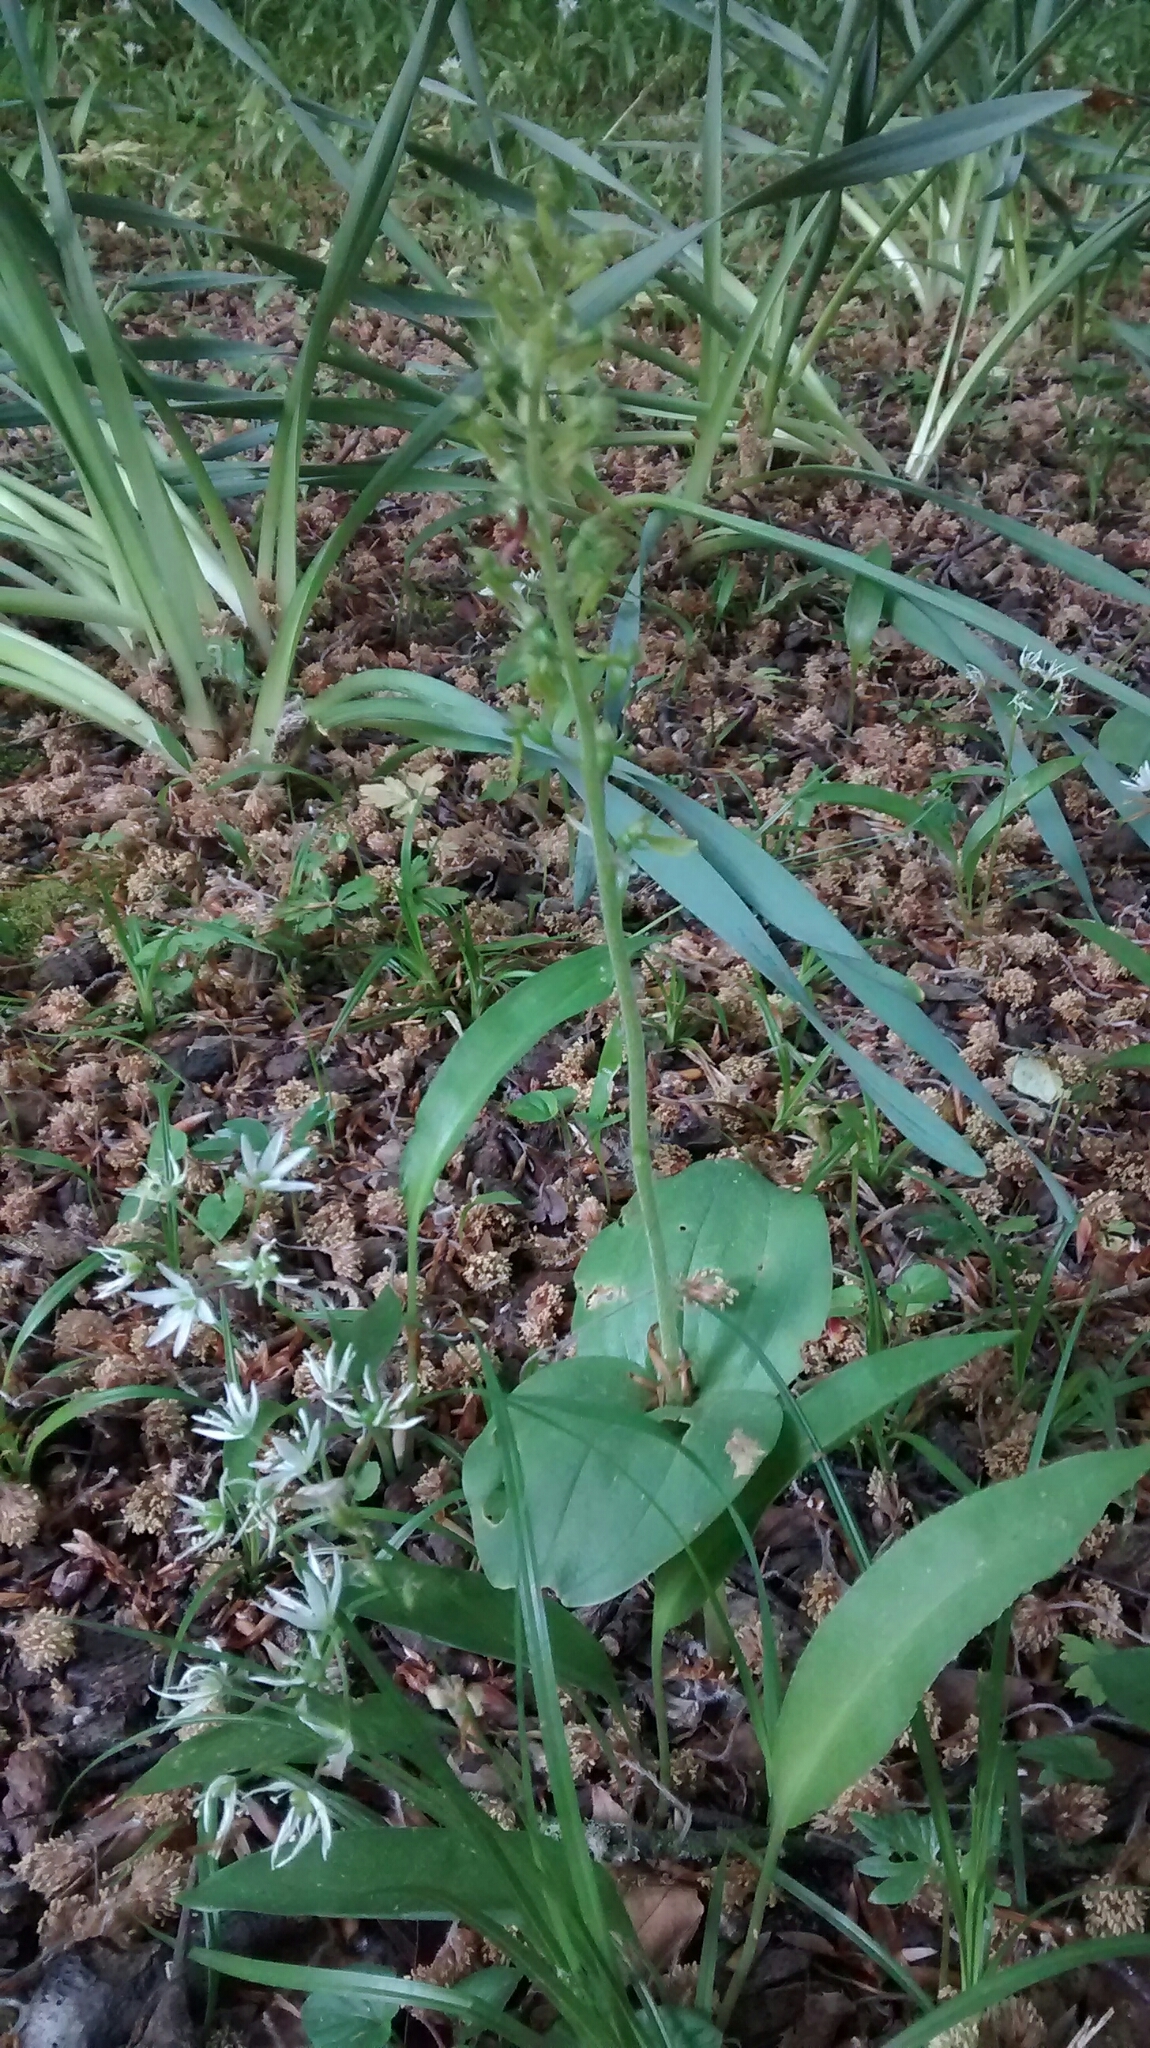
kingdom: Plantae
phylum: Tracheophyta
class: Liliopsida
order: Asparagales
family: Orchidaceae
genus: Neottia
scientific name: Neottia ovata
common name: Common twayblade
